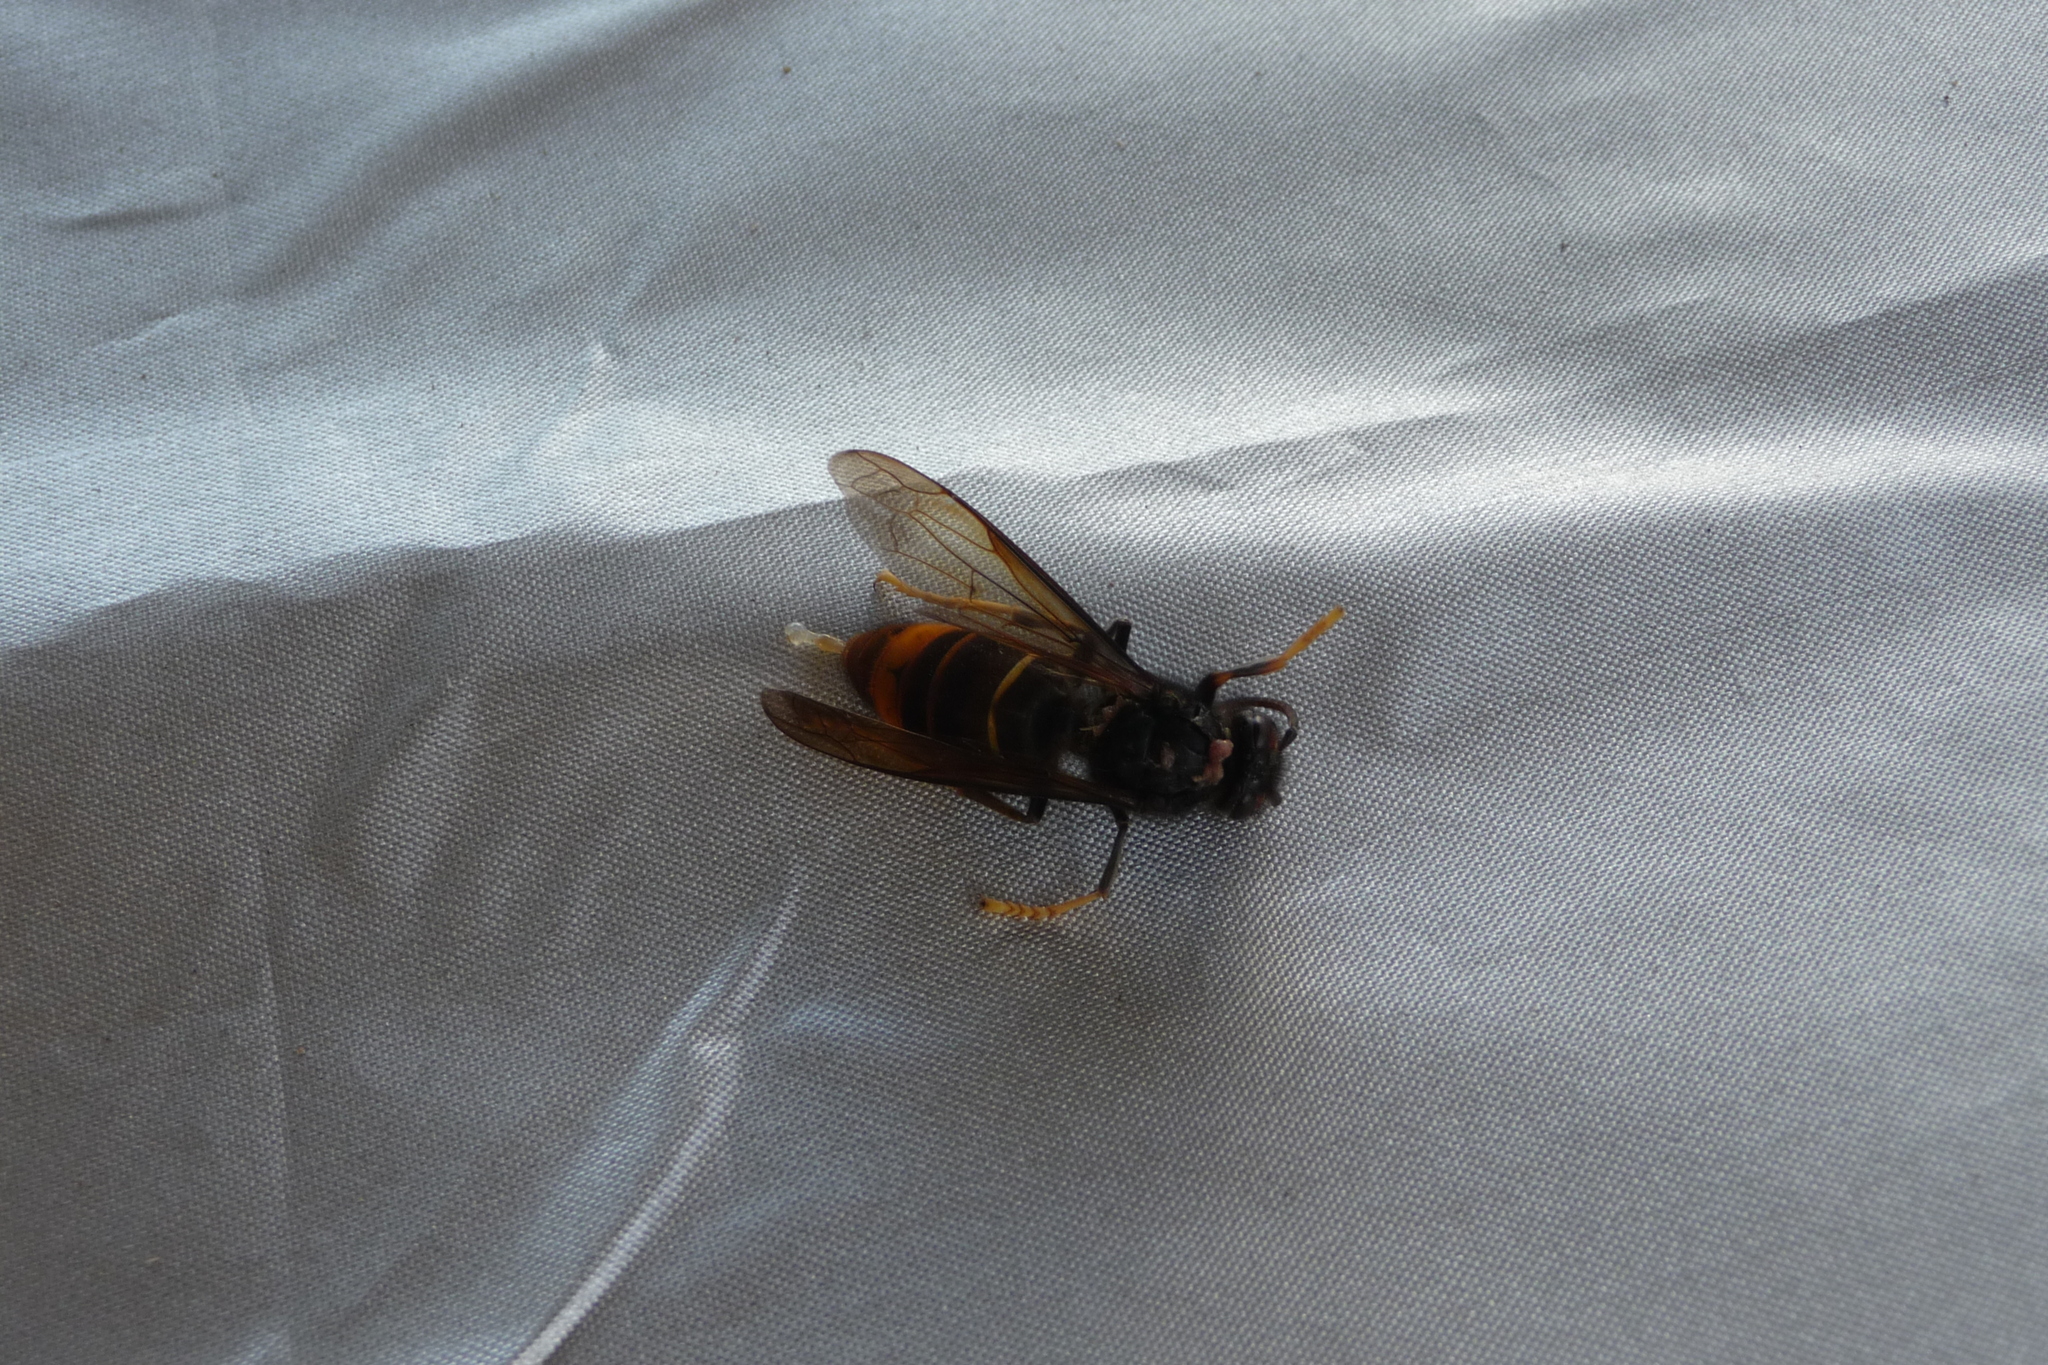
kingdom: Animalia
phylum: Arthropoda
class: Insecta
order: Hymenoptera
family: Vespidae
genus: Vespa
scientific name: Vespa velutina
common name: Asian hornet
